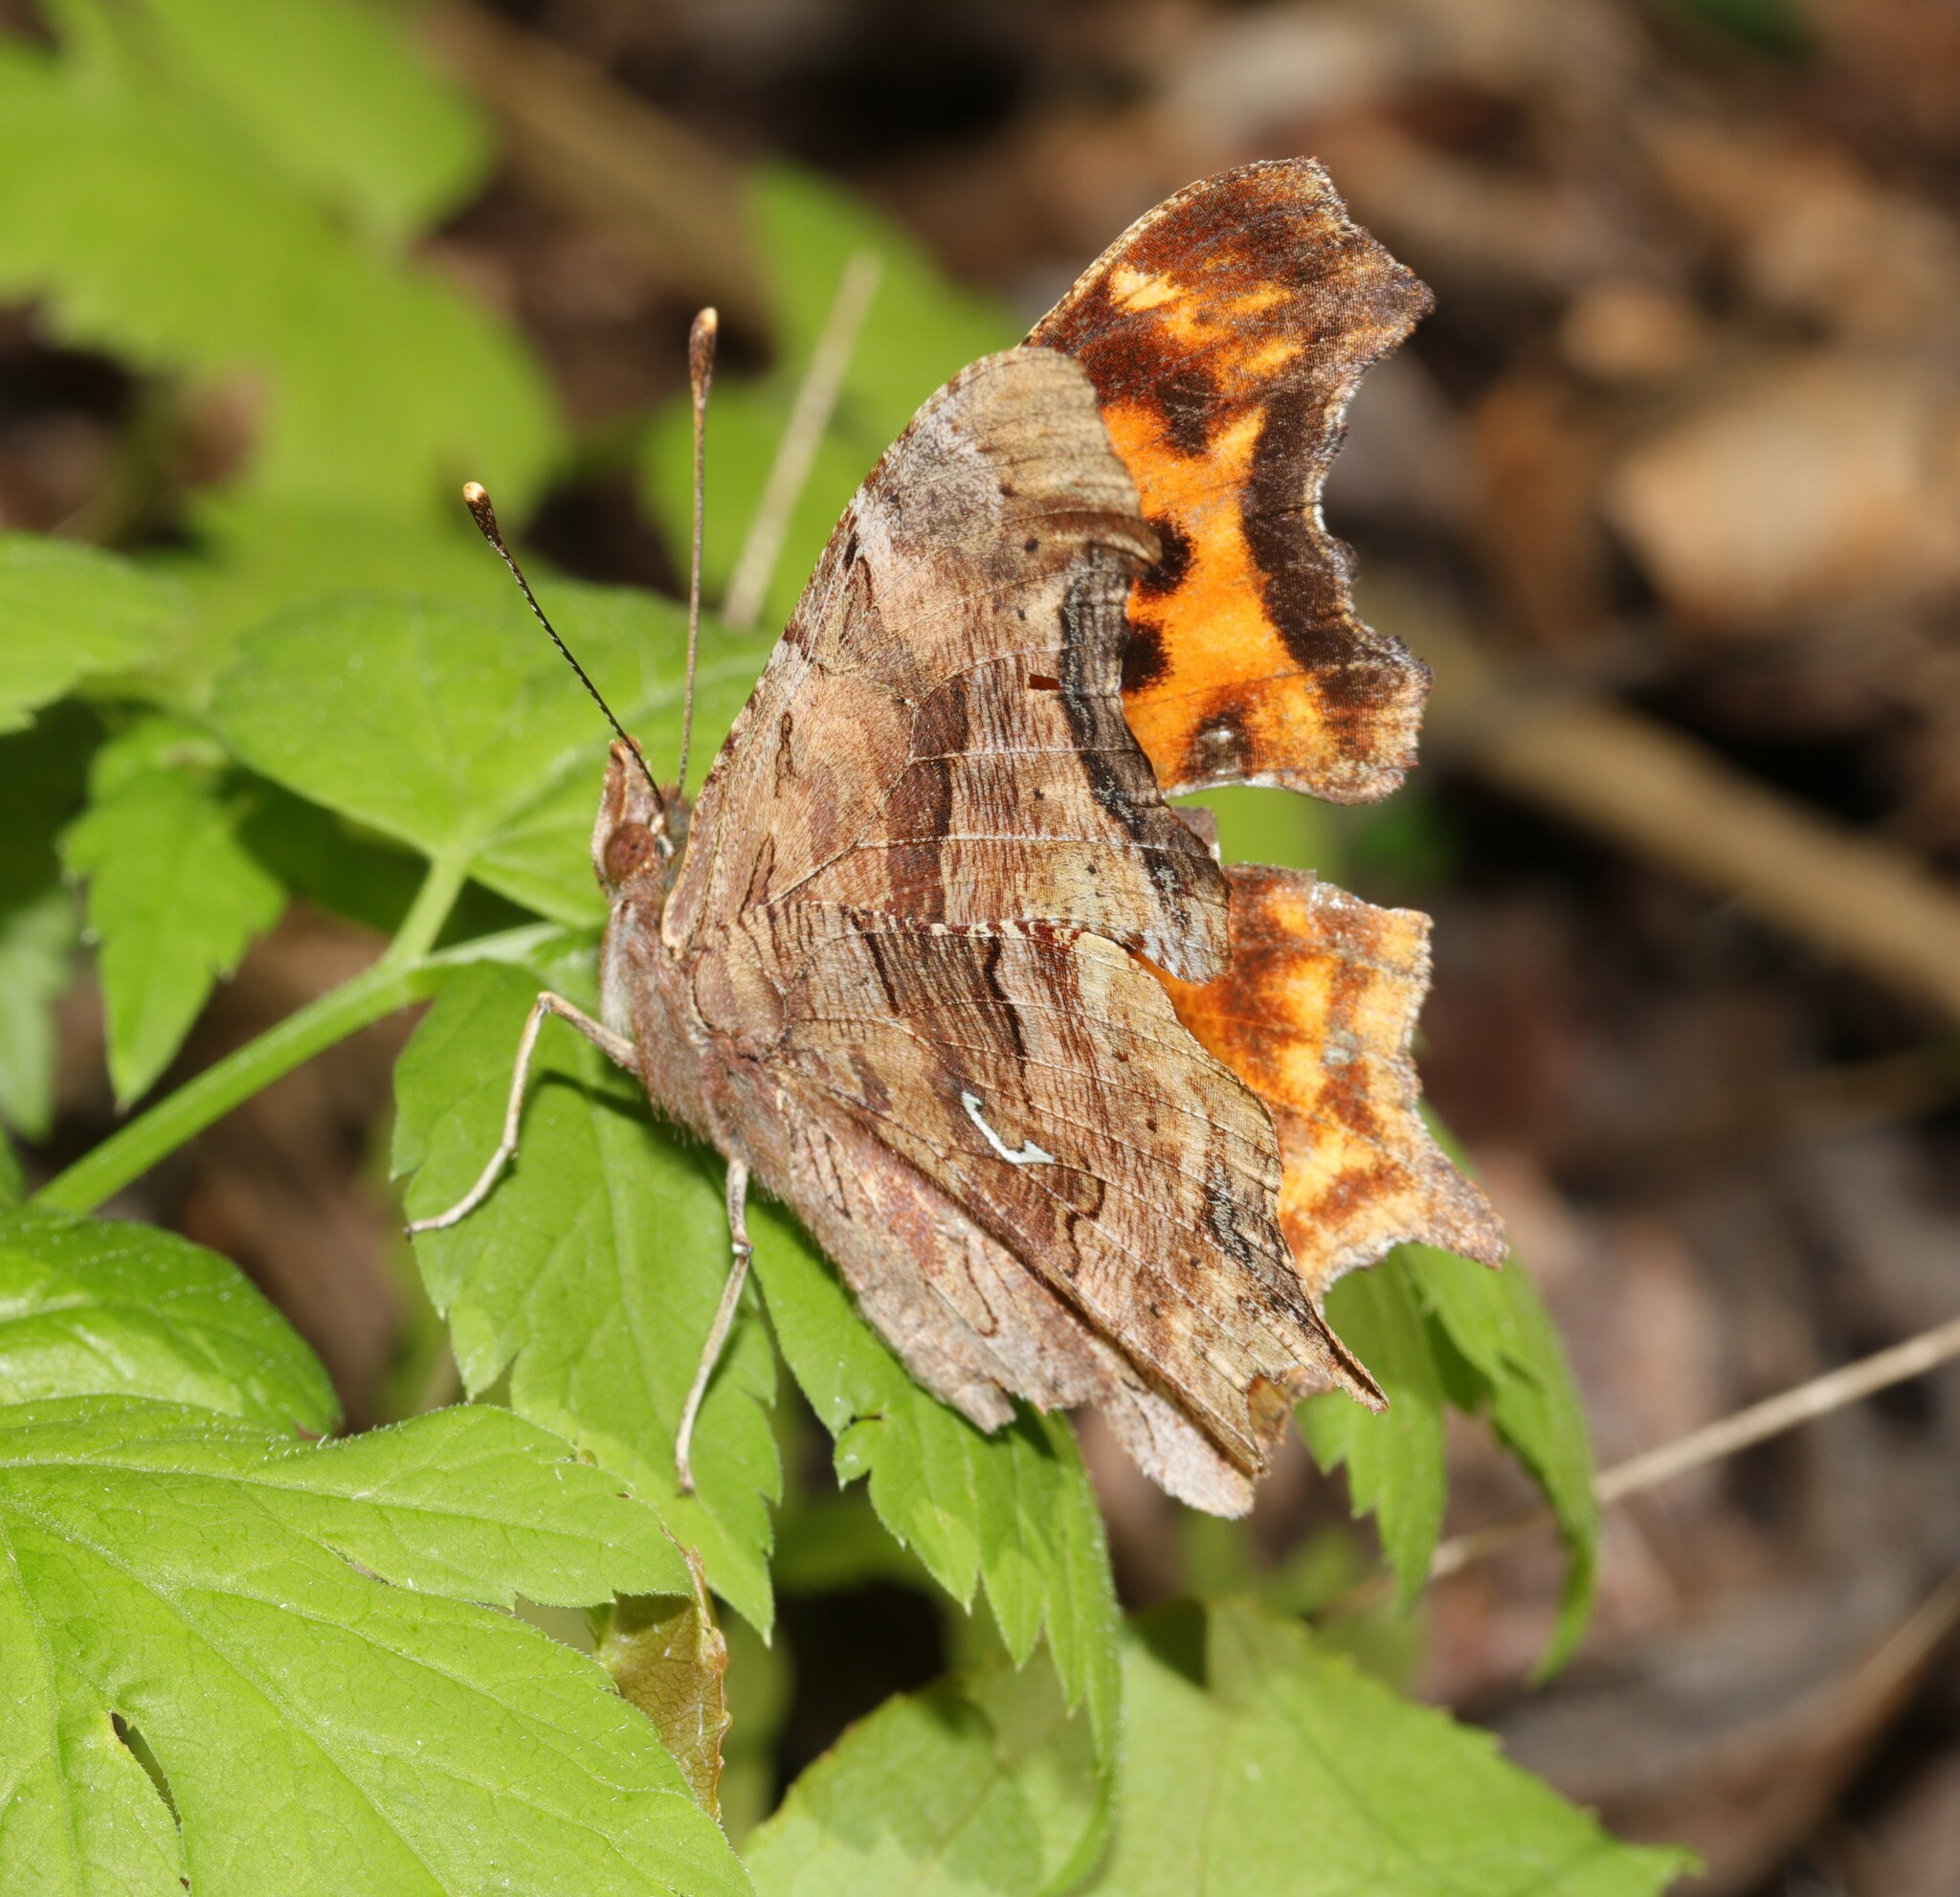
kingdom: Animalia
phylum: Arthropoda
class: Insecta
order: Lepidoptera
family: Nymphalidae
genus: Polygonia
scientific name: Polygonia satyrus
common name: Satyr angle wing
